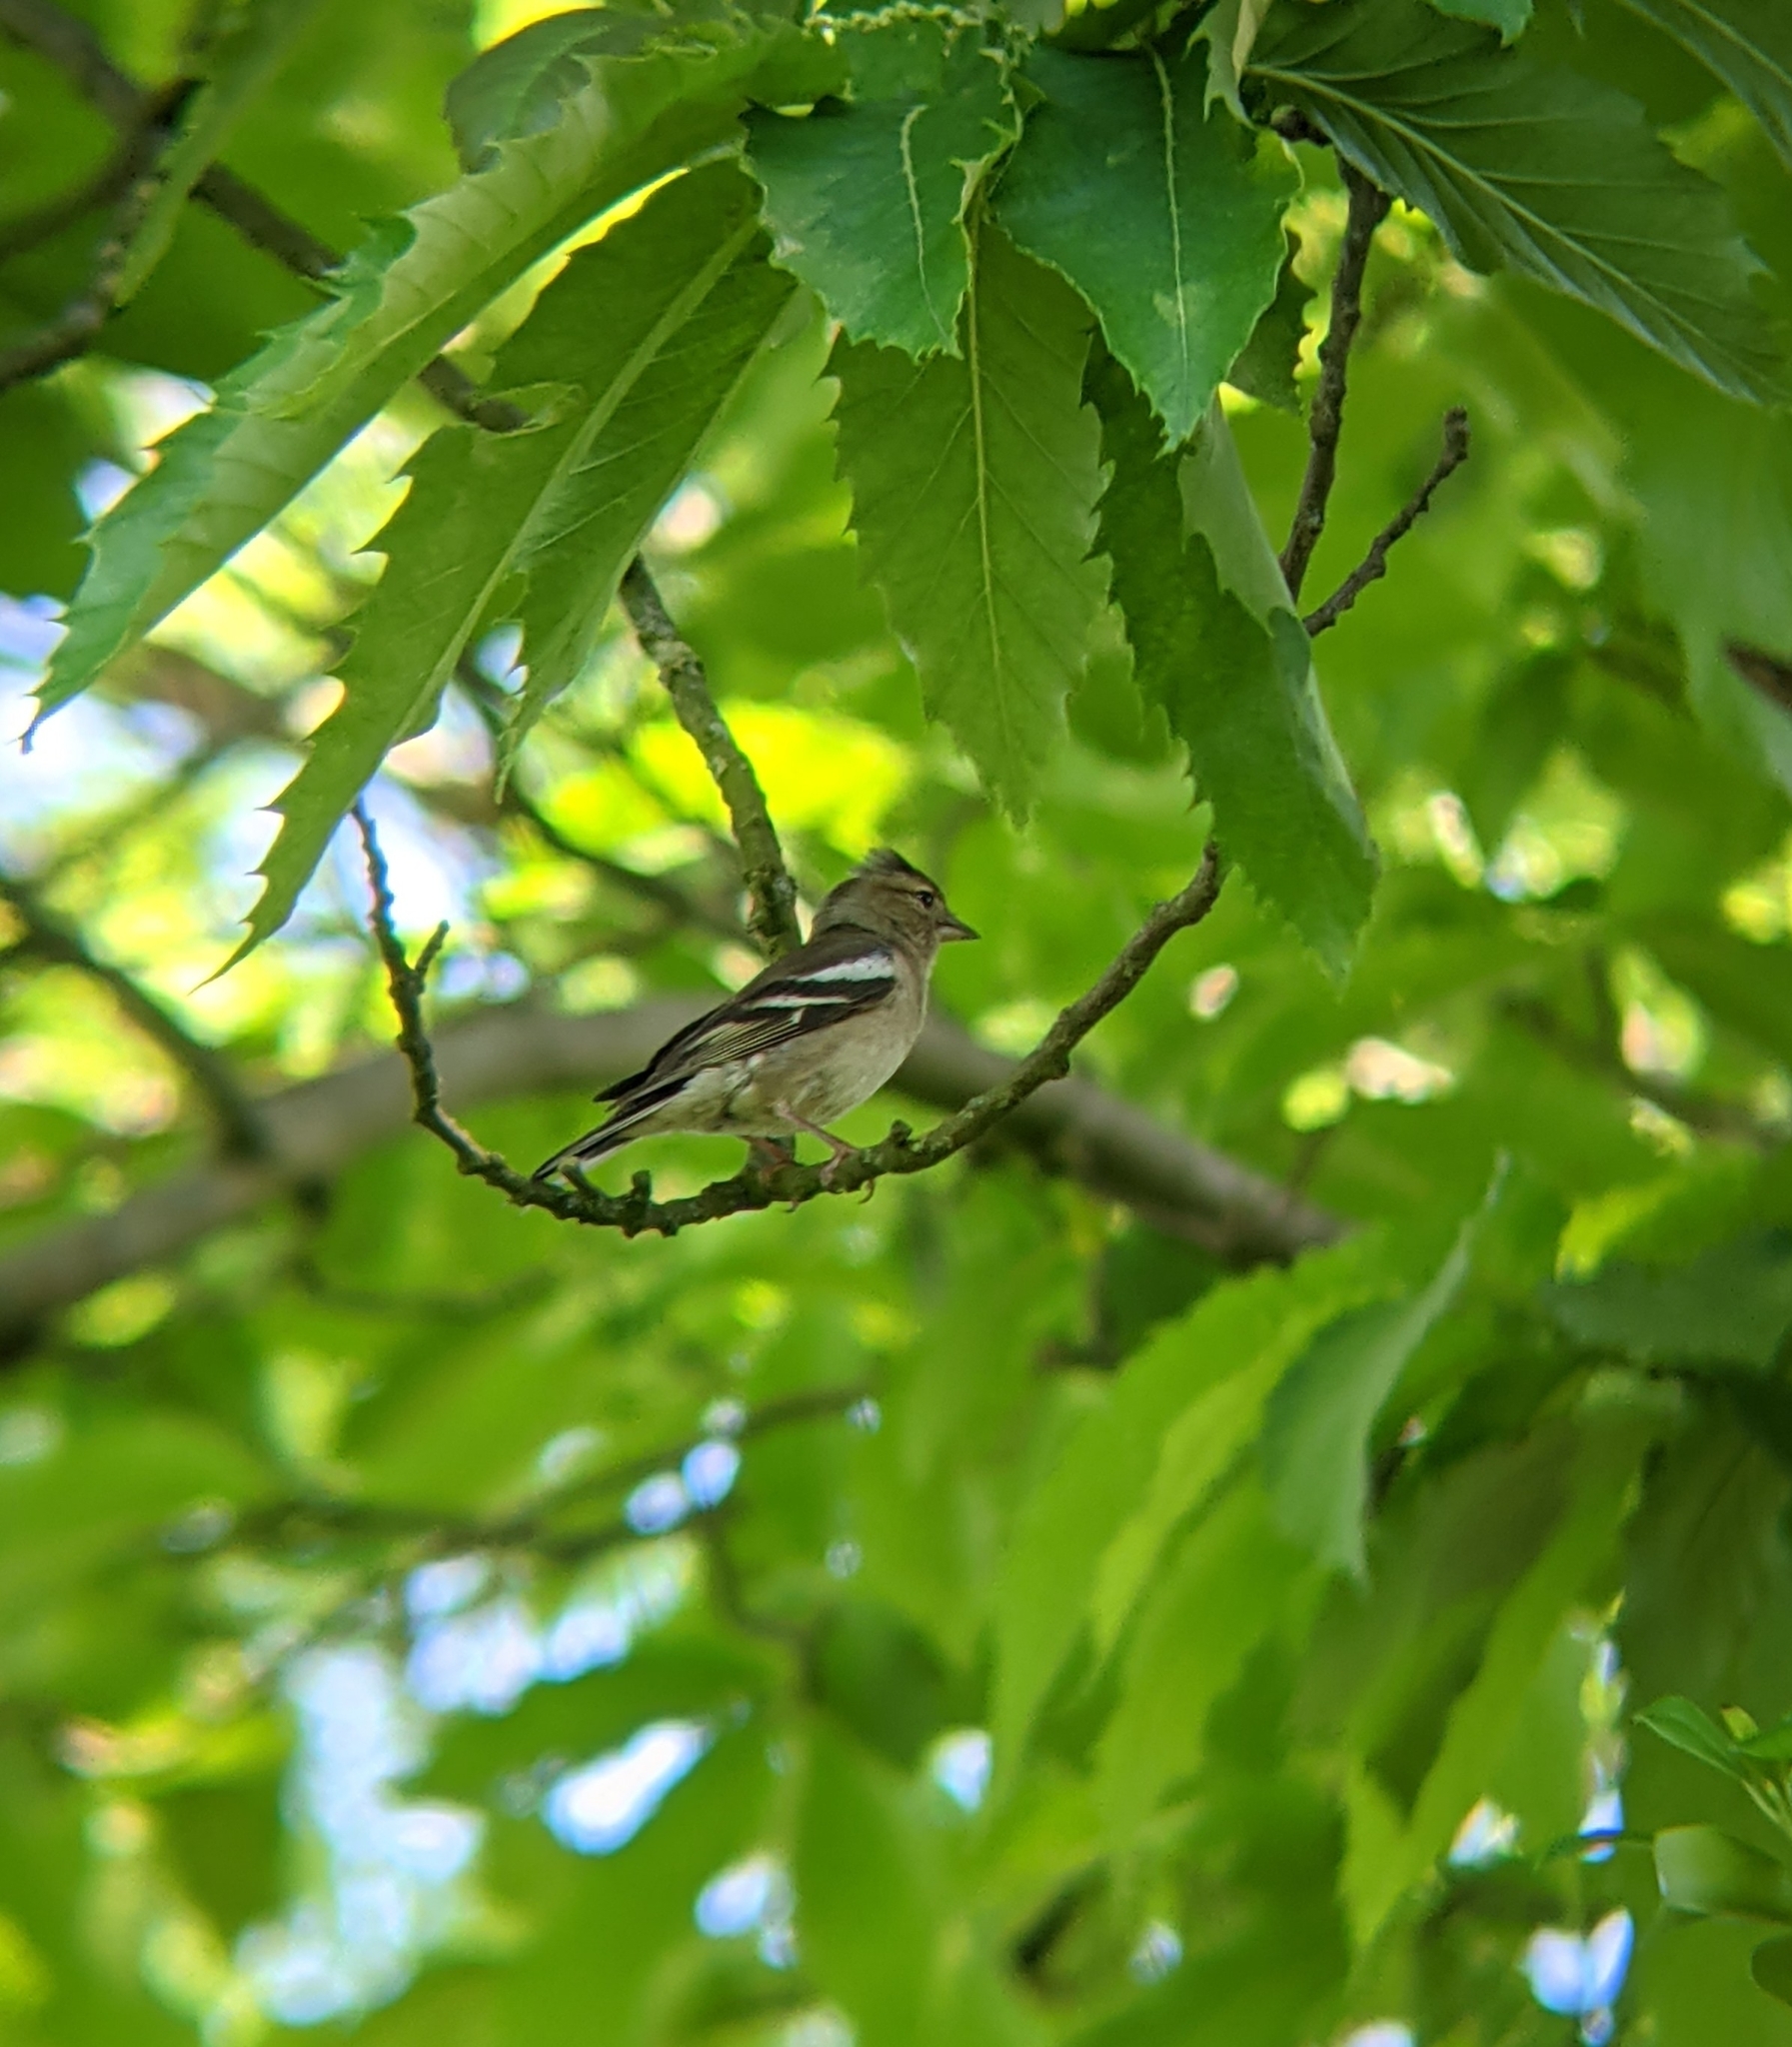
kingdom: Animalia
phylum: Chordata
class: Aves
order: Passeriformes
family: Fringillidae
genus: Fringilla
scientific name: Fringilla coelebs
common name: Common chaffinch
